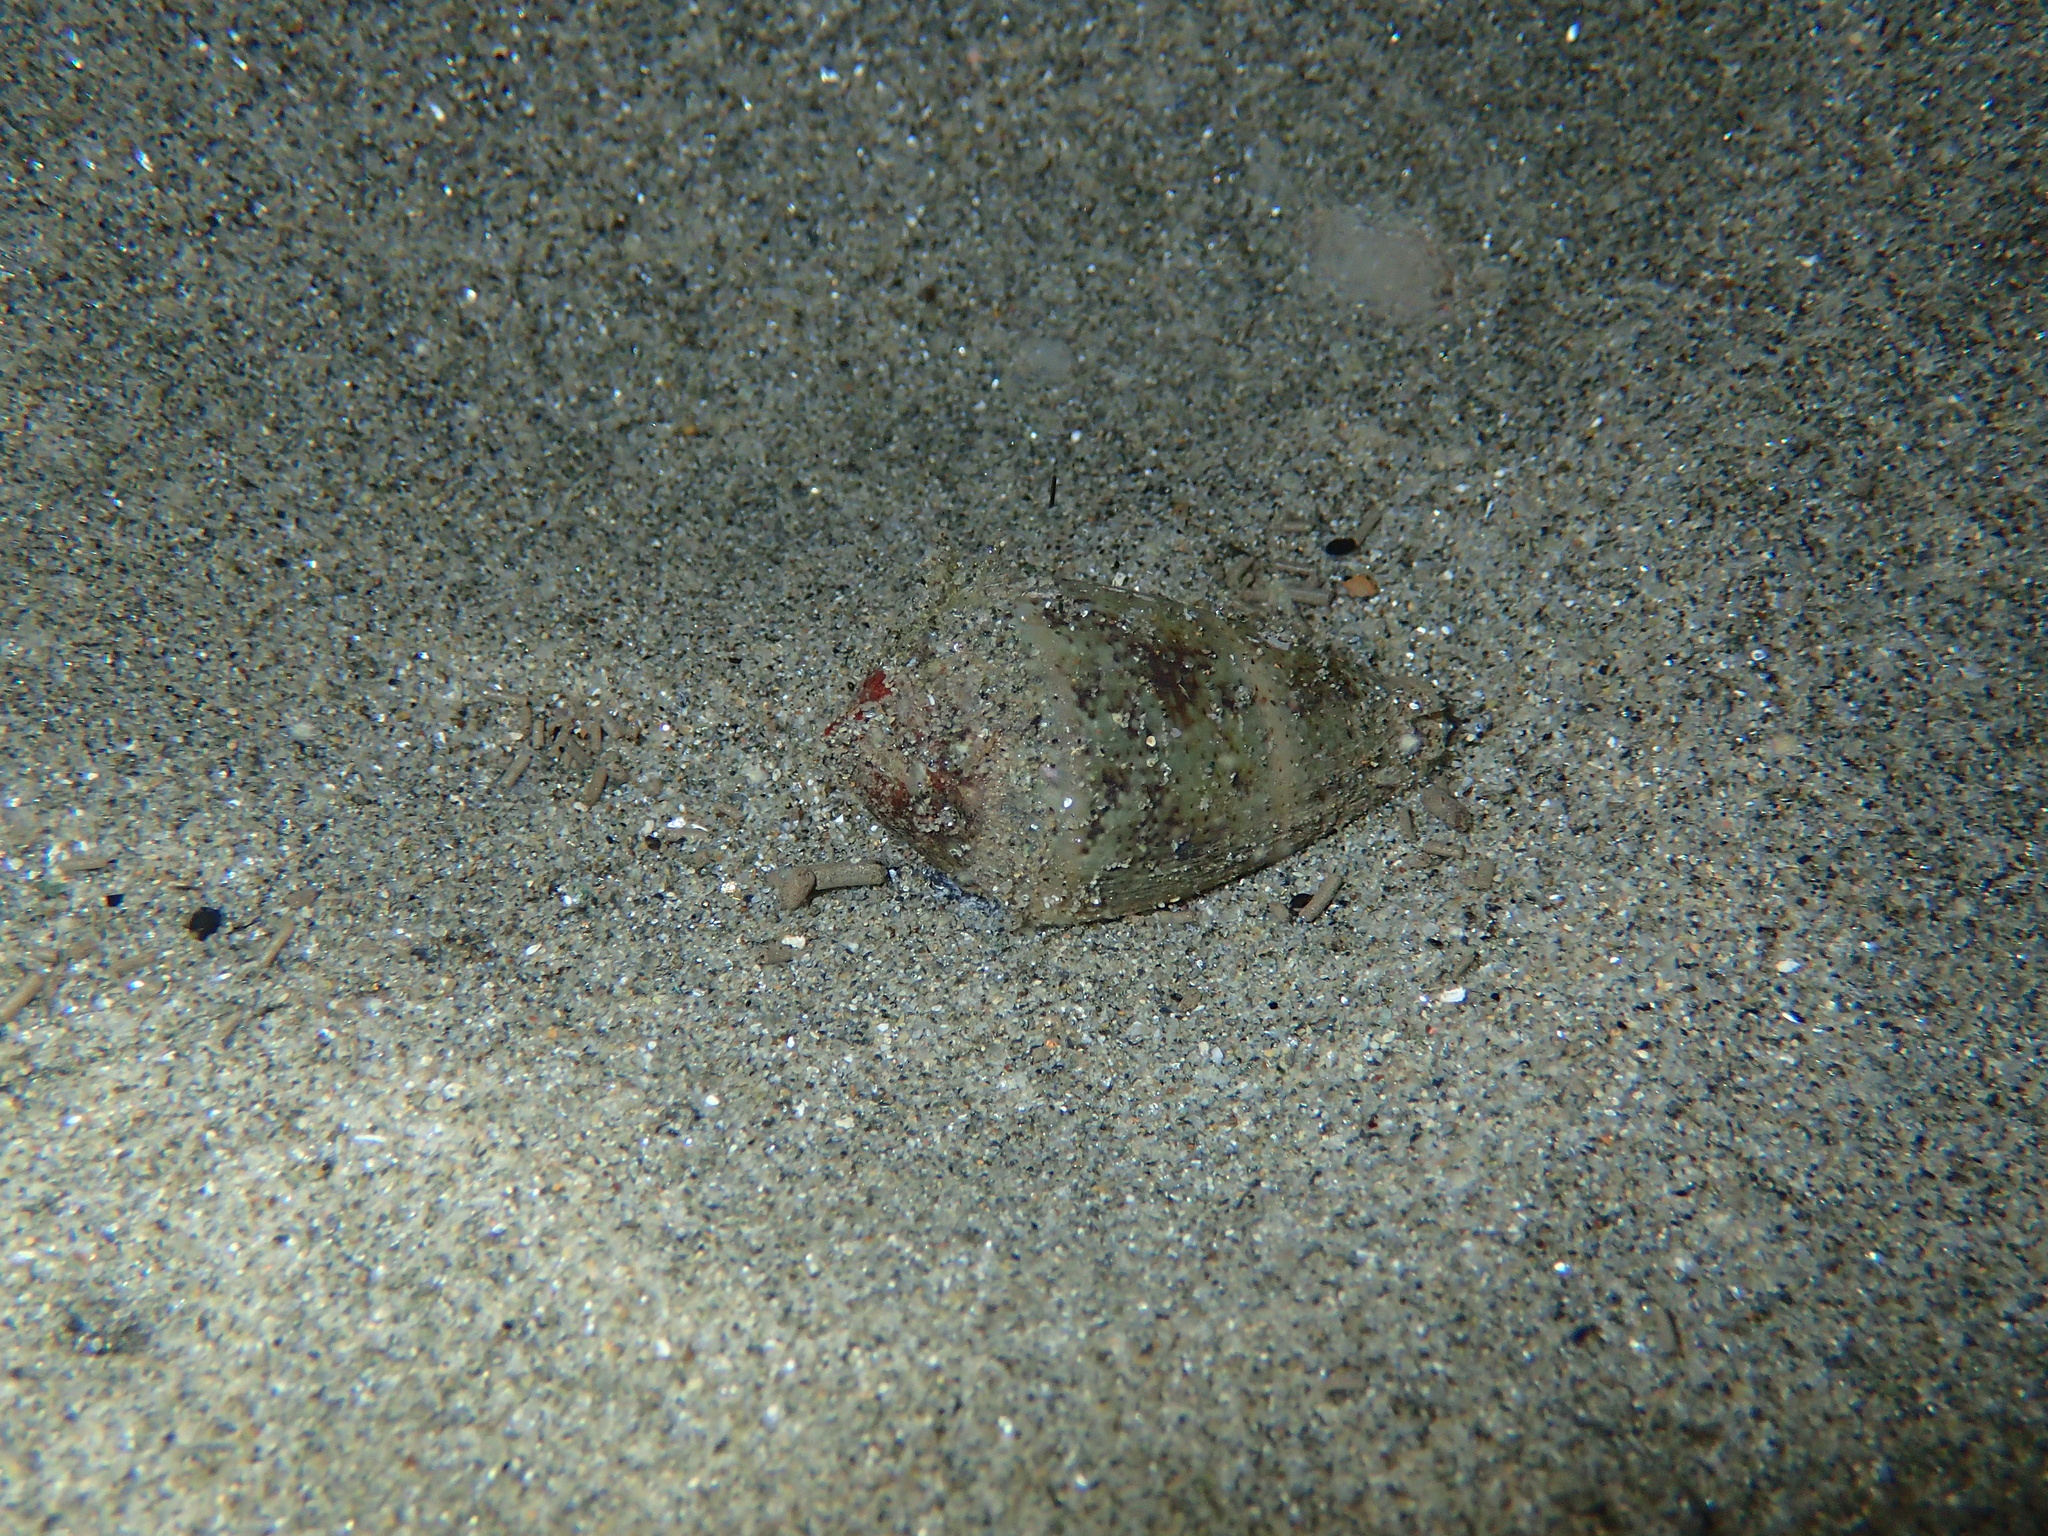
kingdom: Animalia
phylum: Mollusca
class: Gastropoda
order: Neogastropoda
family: Conidae
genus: Conus
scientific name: Conus ventricosus
